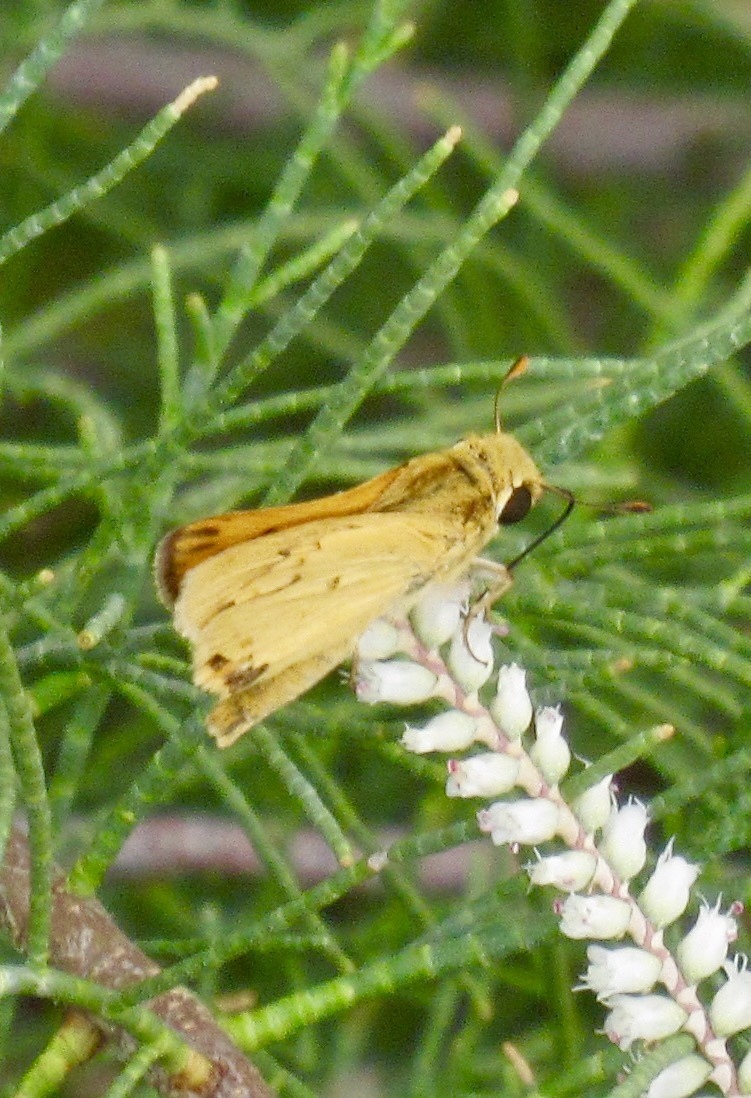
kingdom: Animalia
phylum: Arthropoda
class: Insecta
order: Lepidoptera
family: Hesperiidae
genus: Hylephila
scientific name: Hylephila phyleus
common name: Fiery skipper
